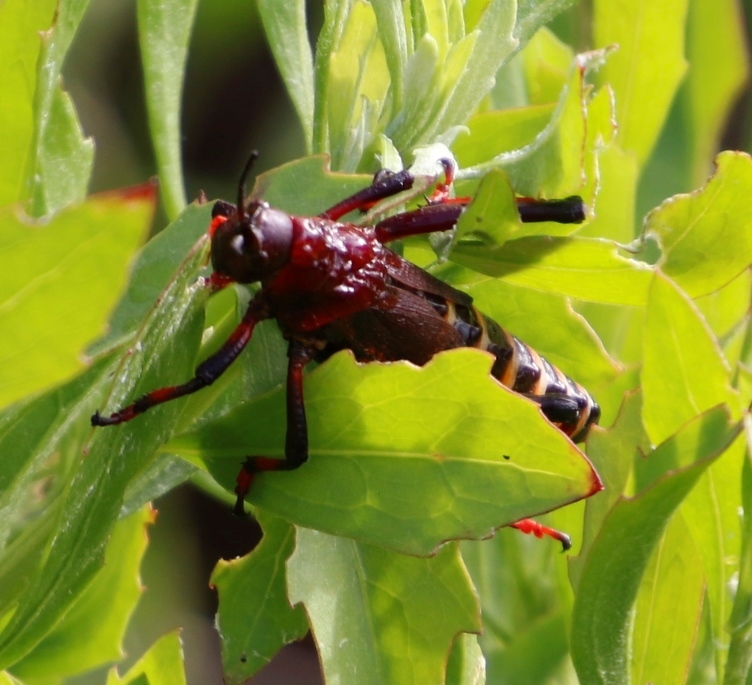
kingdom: Animalia
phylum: Arthropoda
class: Insecta
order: Orthoptera
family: Pyrgomorphidae
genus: Dictyophorus
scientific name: Dictyophorus spumans
